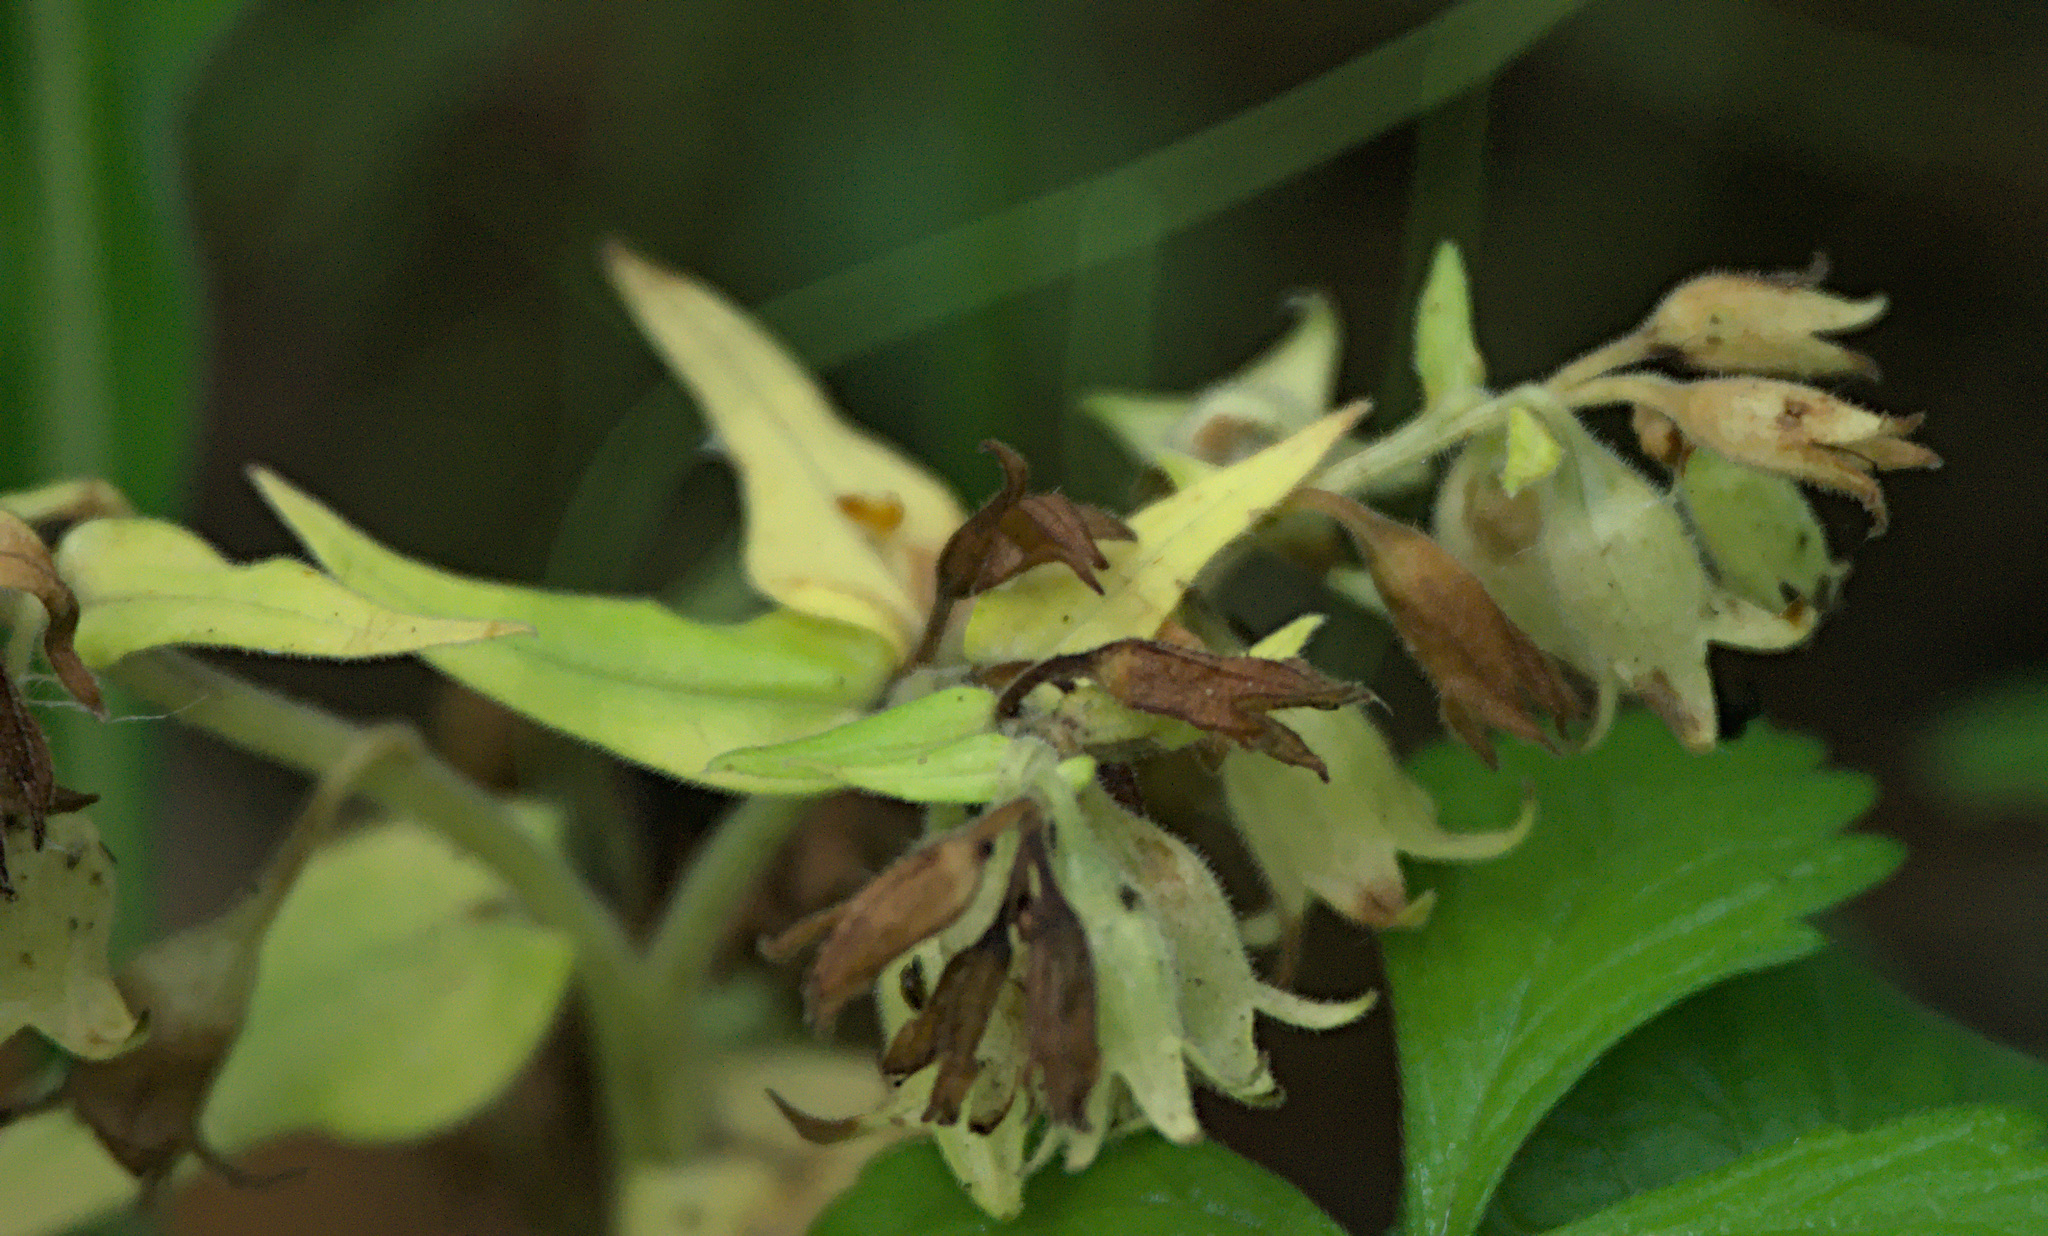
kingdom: Plantae
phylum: Tracheophyta
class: Magnoliopsida
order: Boraginales
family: Boraginaceae
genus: Pulmonaria
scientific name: Pulmonaria mollis
